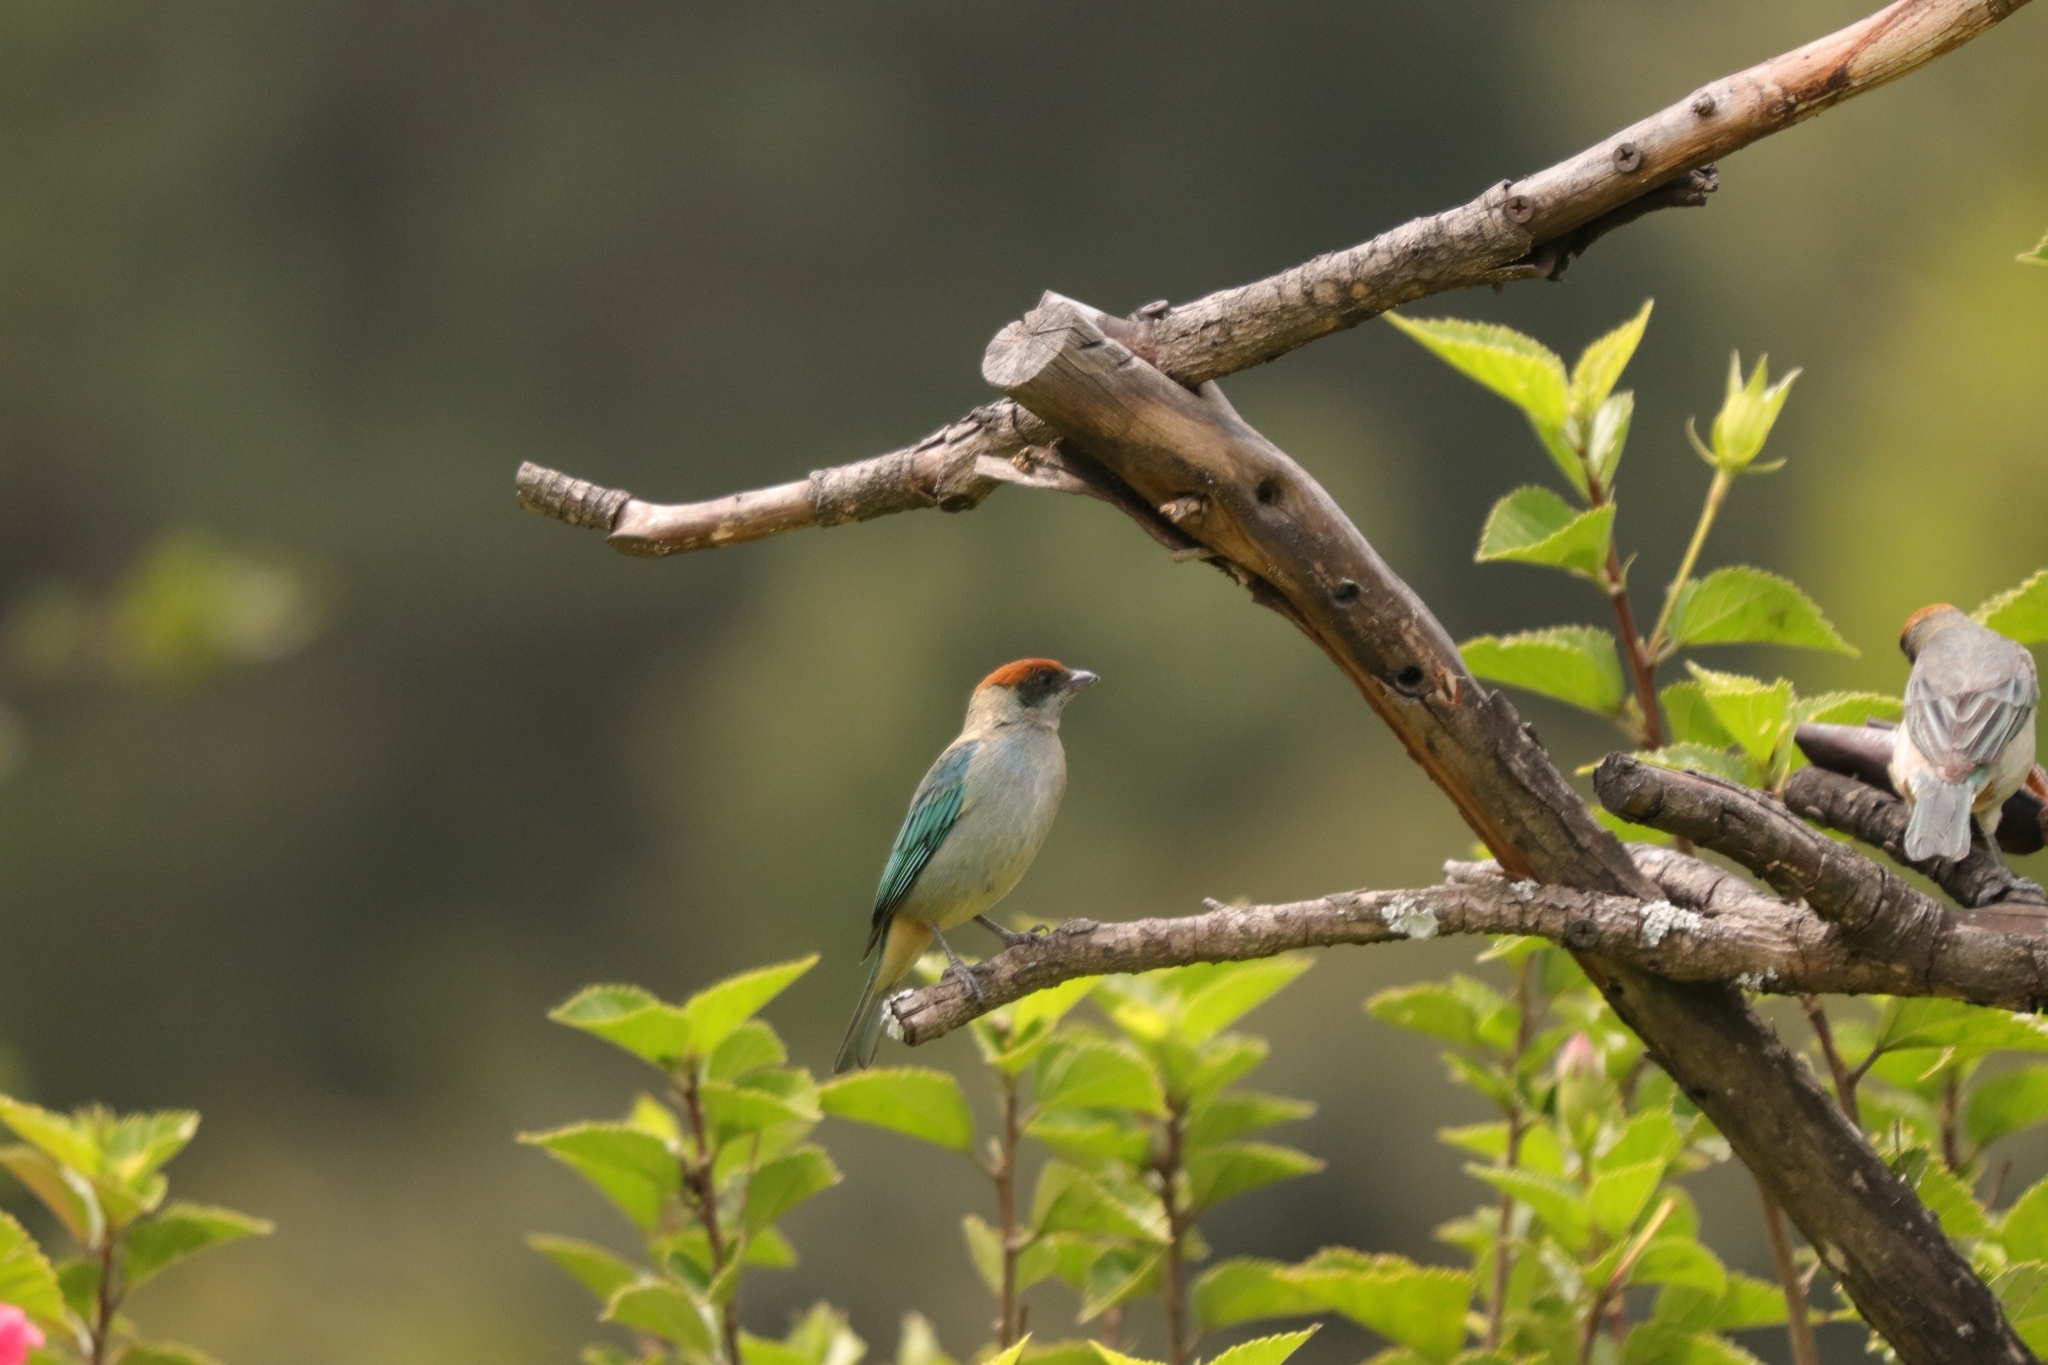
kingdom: Animalia
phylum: Chordata
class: Aves
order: Passeriformes
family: Thraupidae
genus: Stilpnia
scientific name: Stilpnia vitriolina
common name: Scrub tanager
